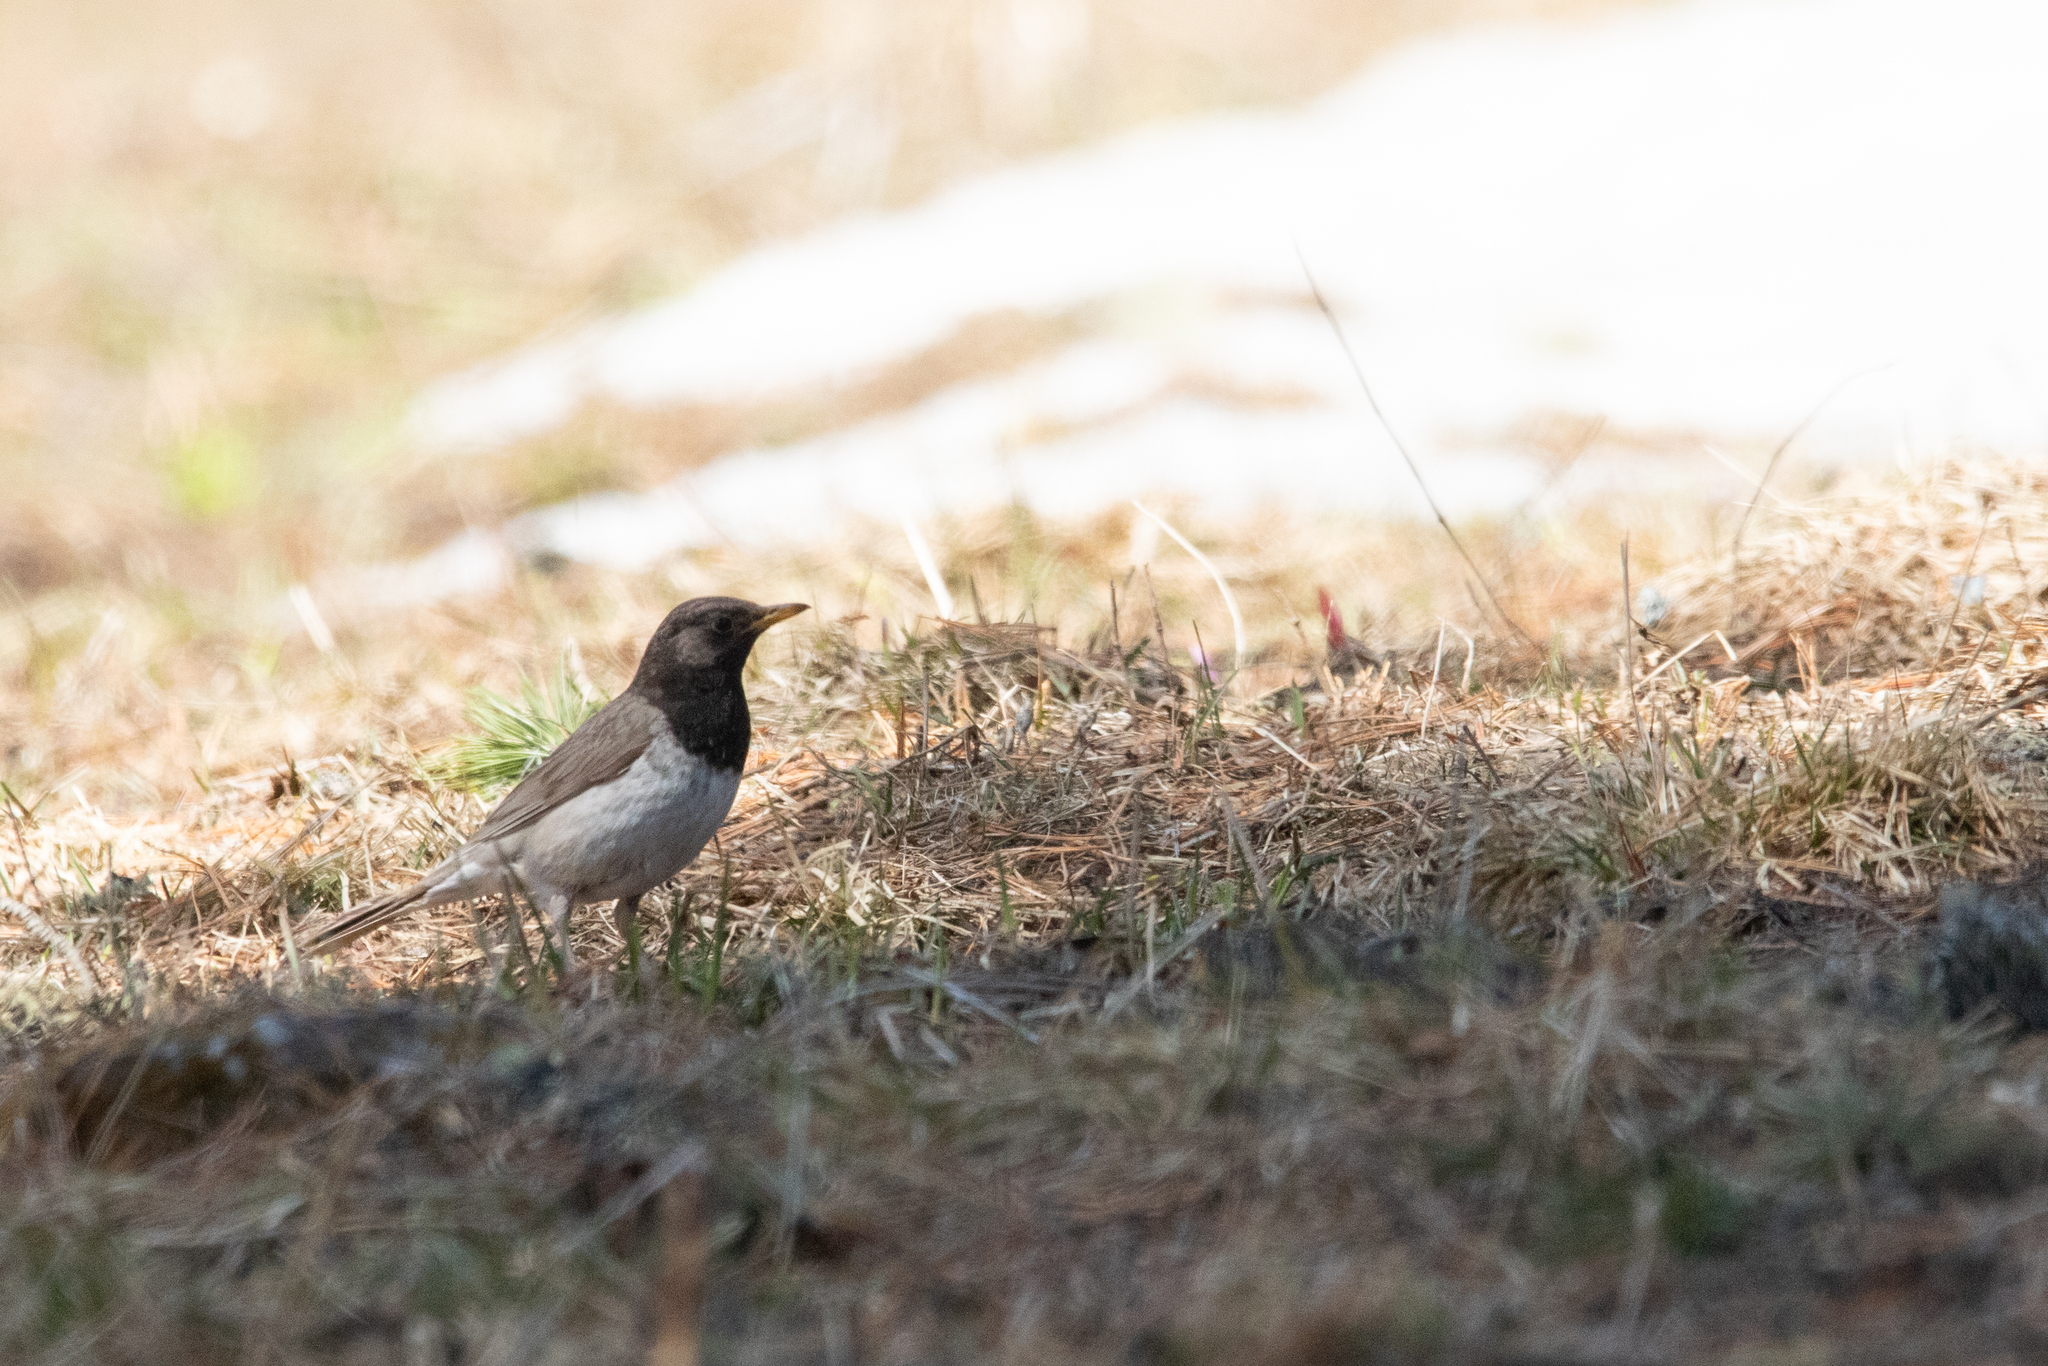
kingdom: Animalia
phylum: Chordata
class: Aves
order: Passeriformes
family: Turdidae
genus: Turdus
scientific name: Turdus atrogularis
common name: Black-throated thrush
